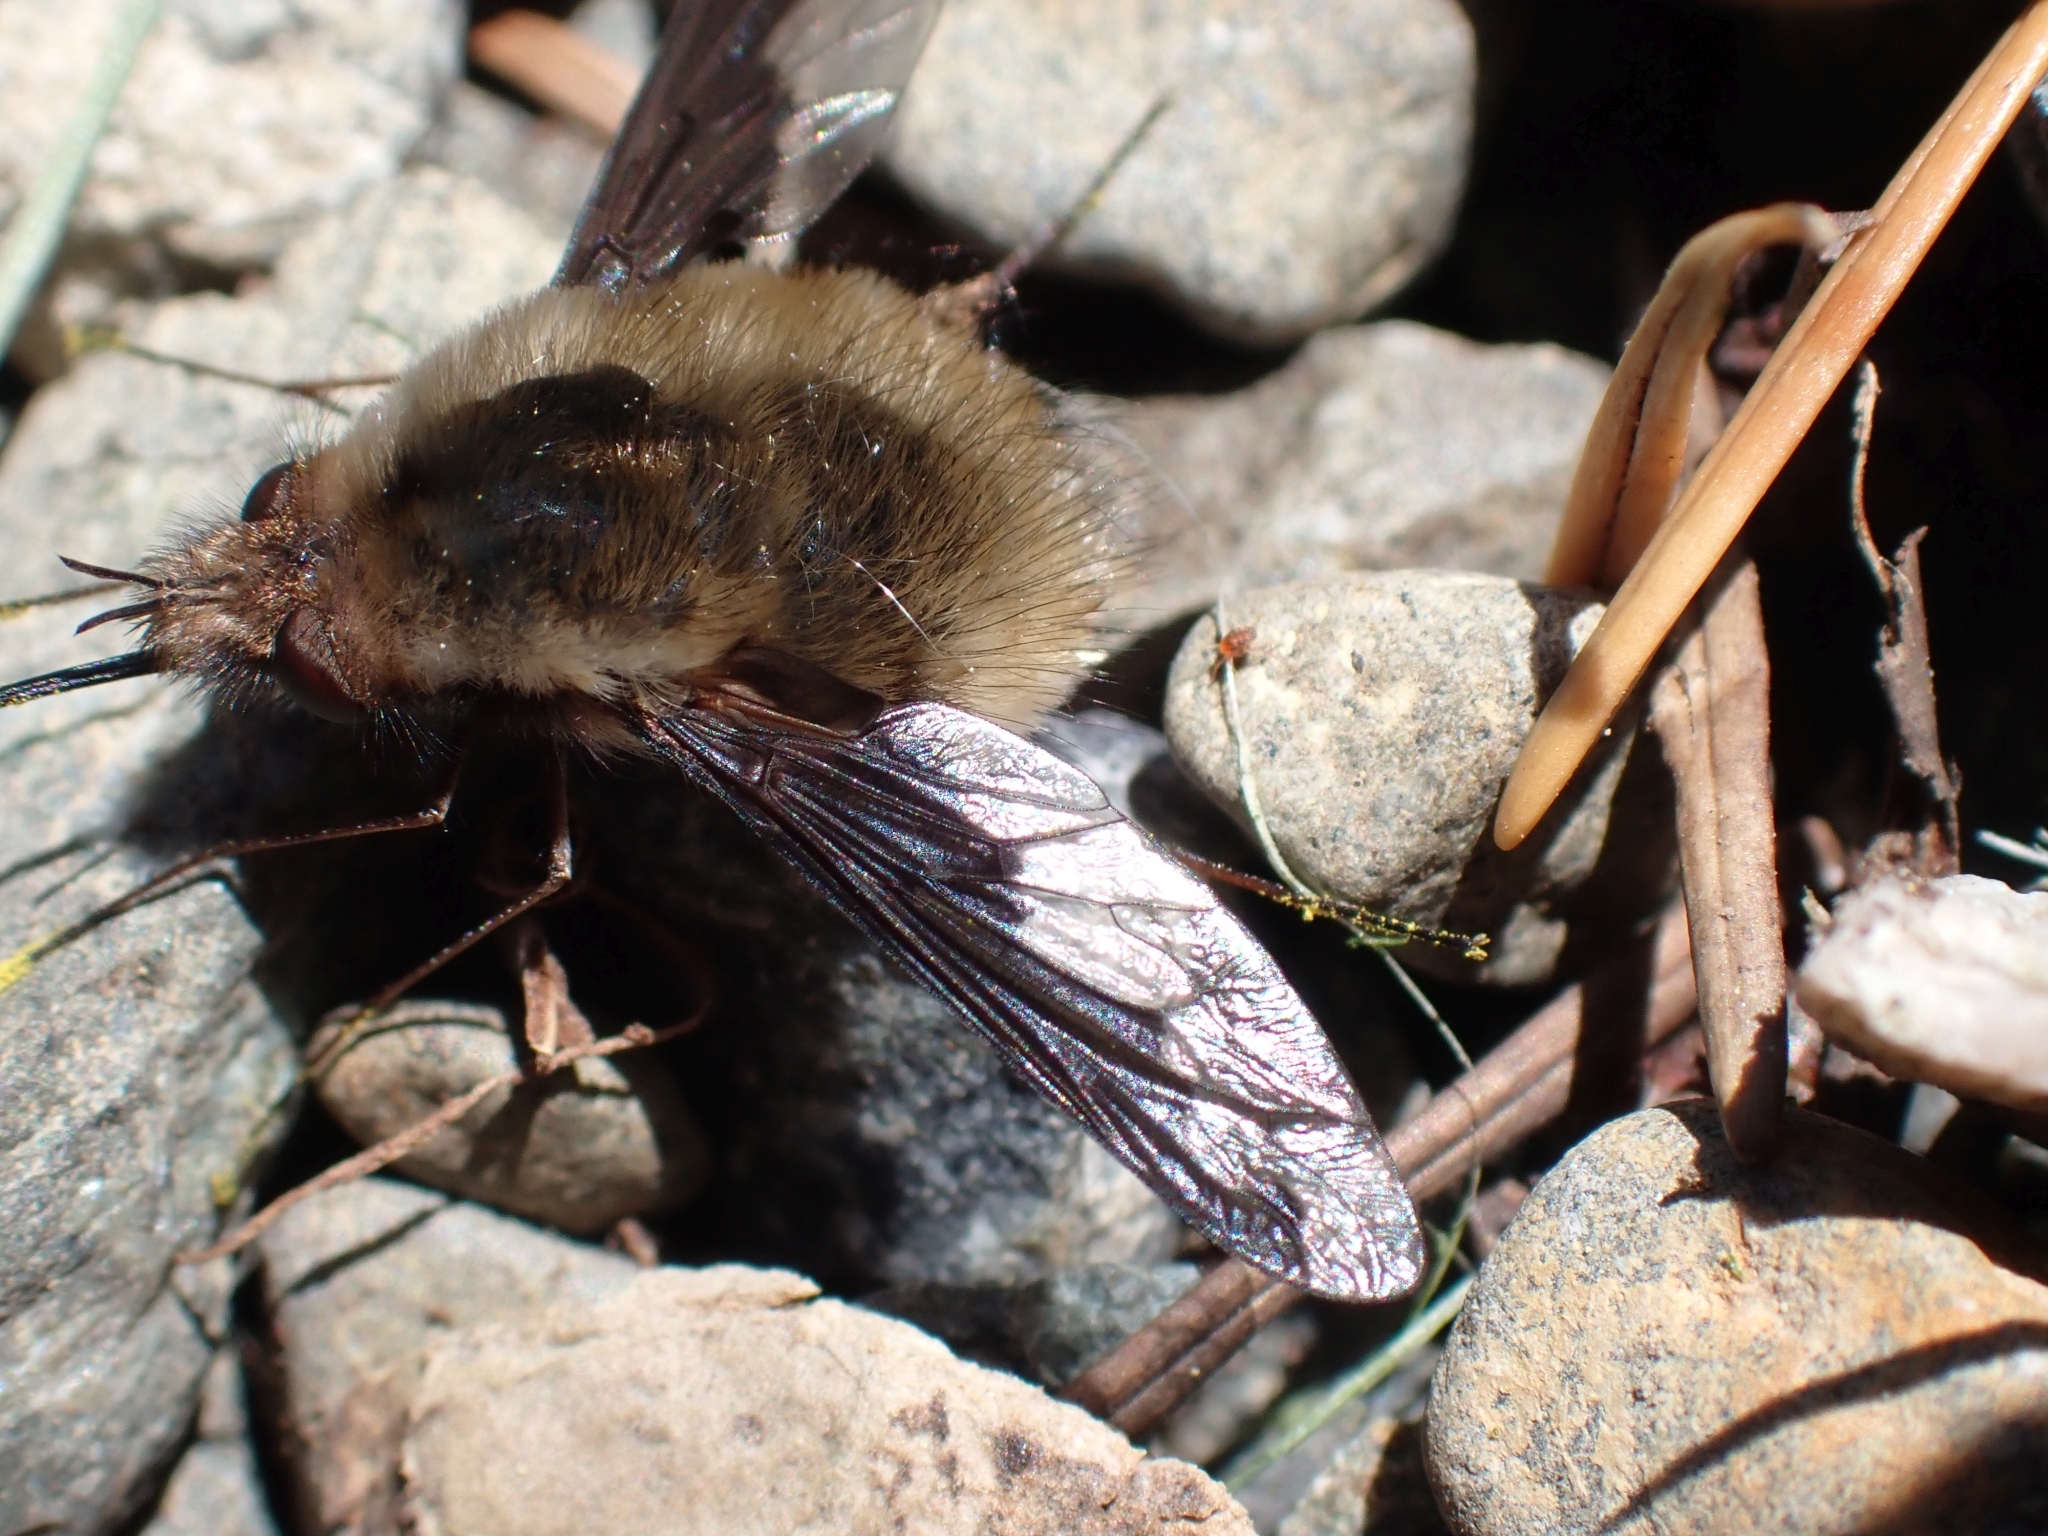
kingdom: Animalia
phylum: Arthropoda
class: Insecta
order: Diptera
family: Bombyliidae
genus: Bombylius
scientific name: Bombylius major
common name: Bee fly
